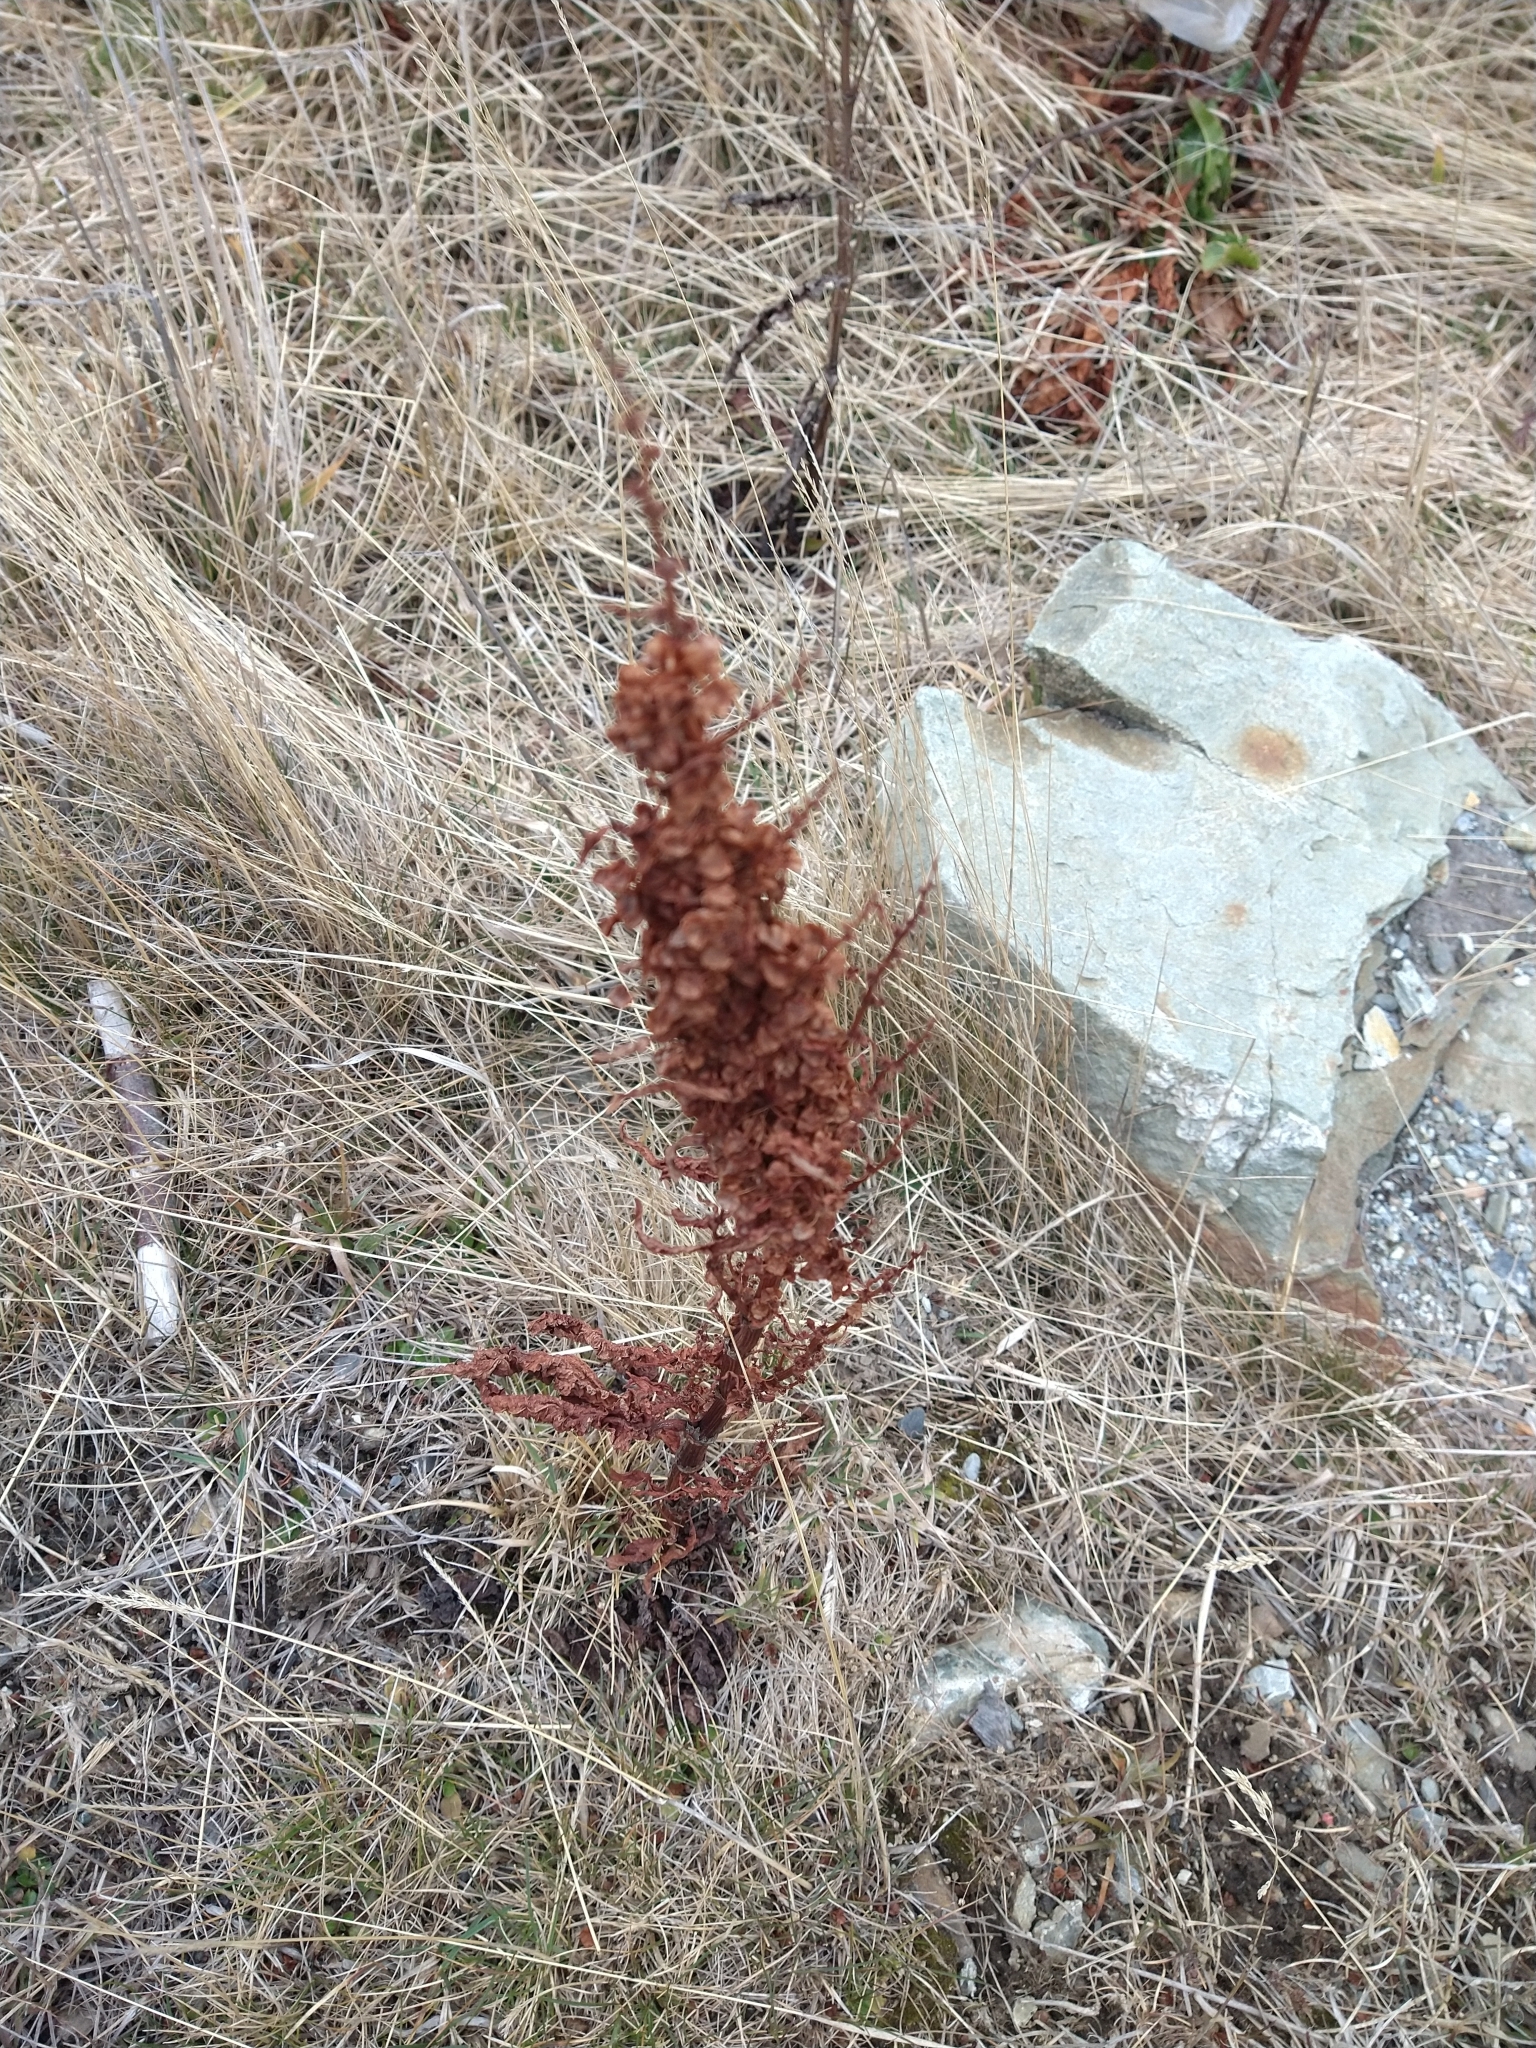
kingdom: Plantae
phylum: Tracheophyta
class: Magnoliopsida
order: Caryophyllales
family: Polygonaceae
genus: Rumex
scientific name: Rumex crispus
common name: Curled dock
